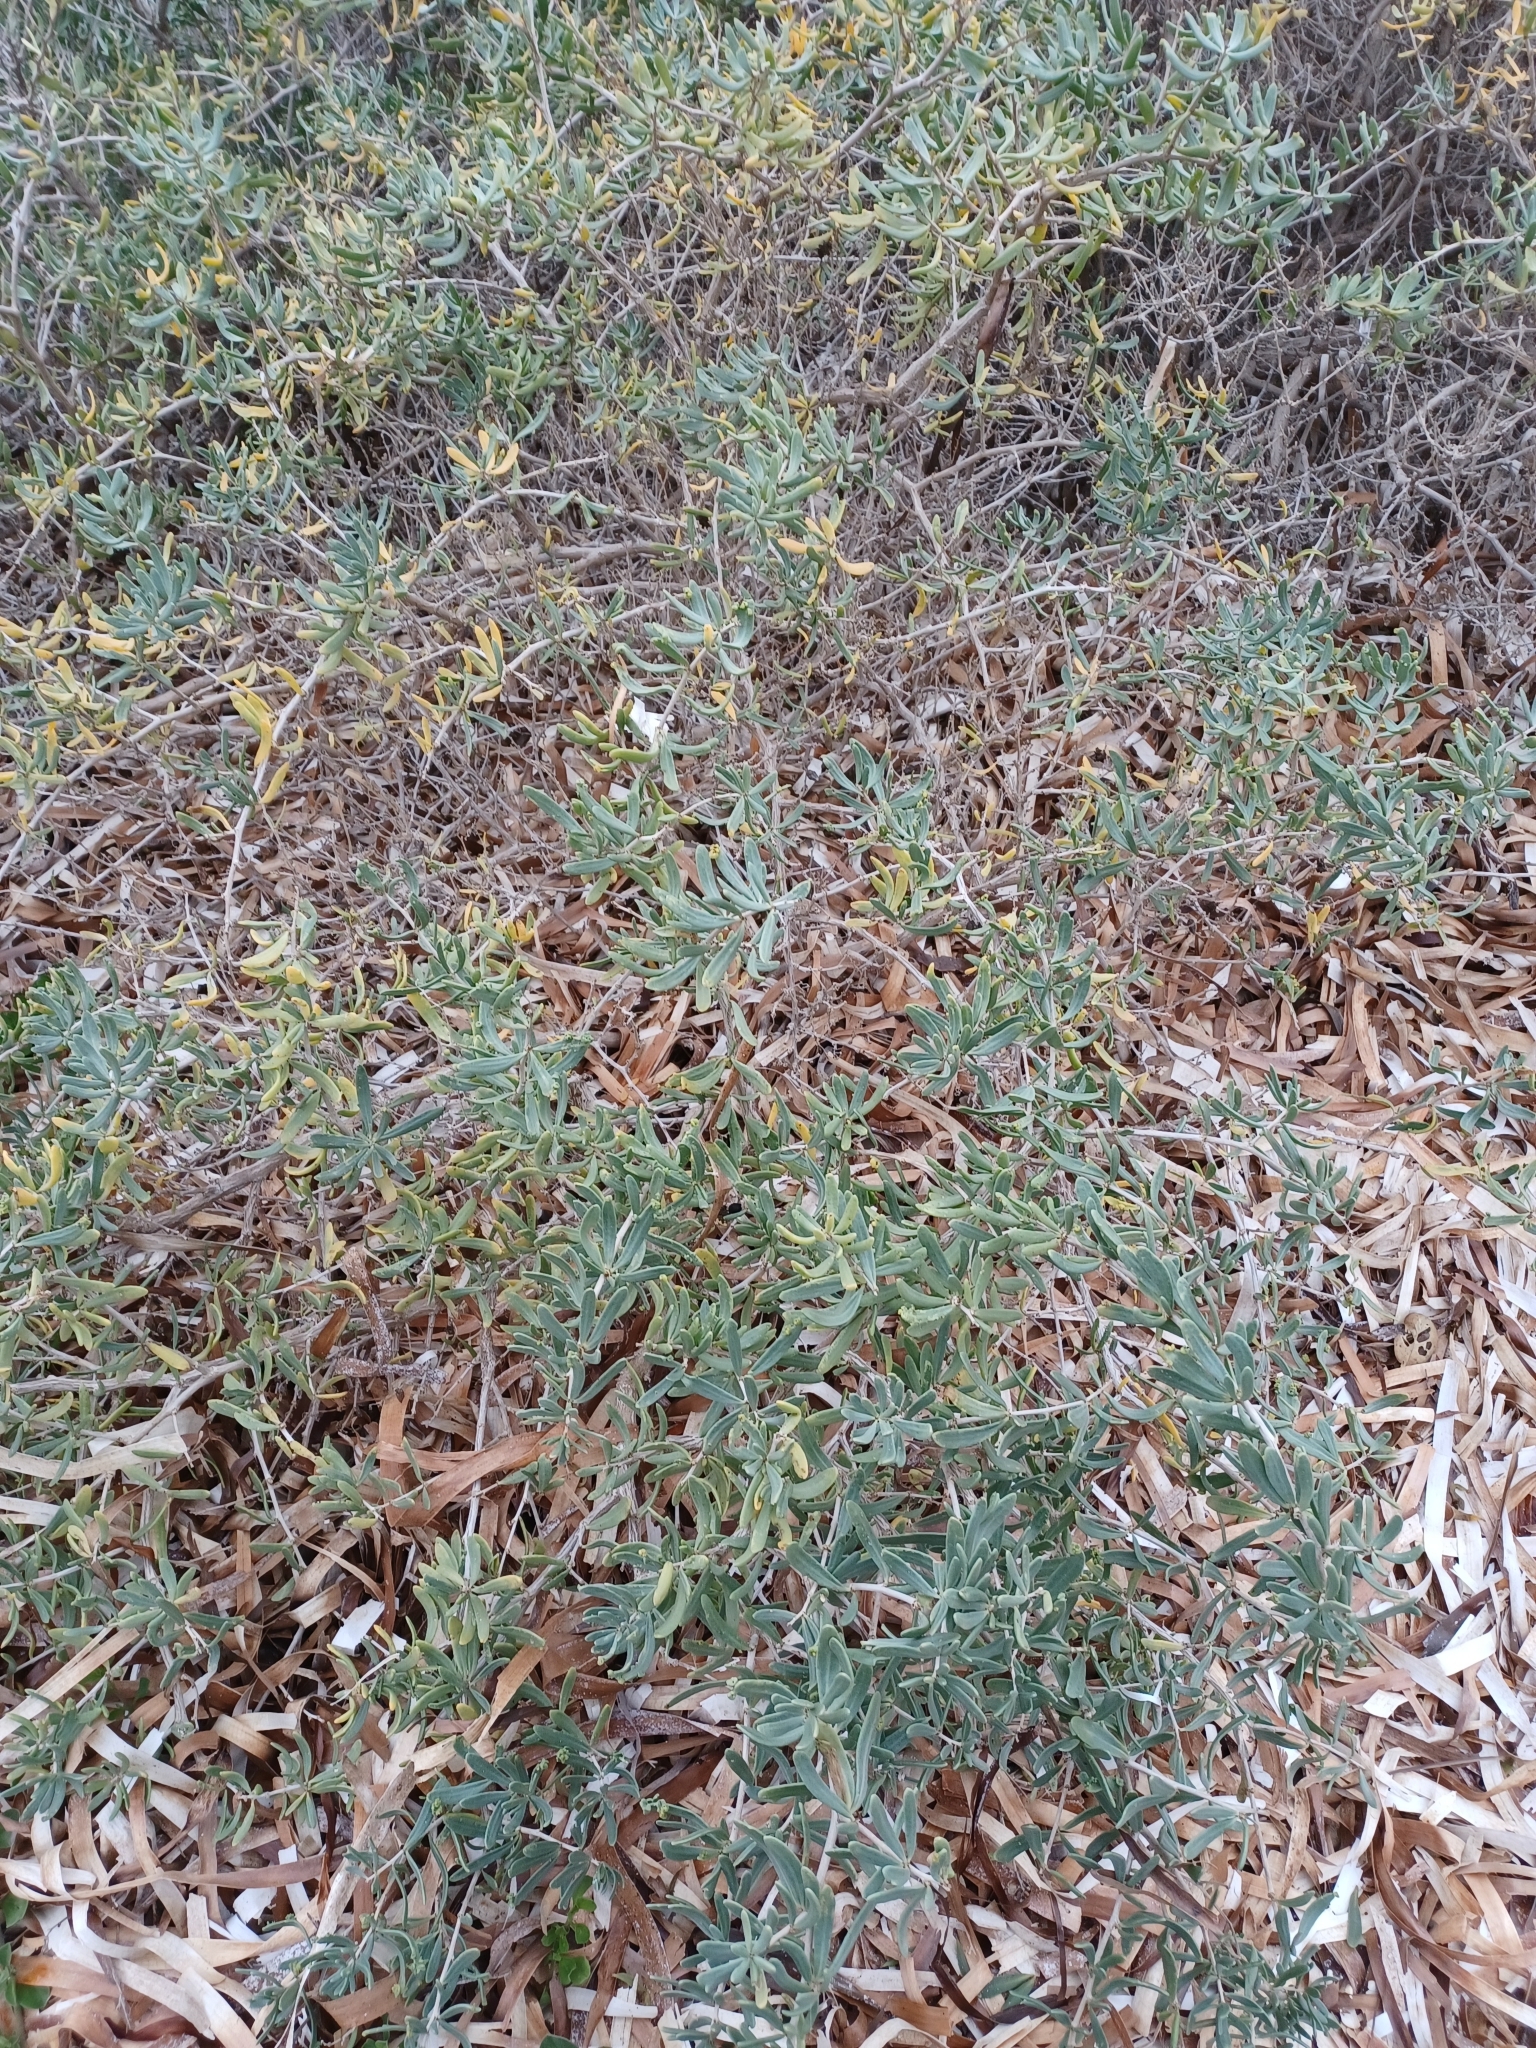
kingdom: Plantae
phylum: Tracheophyta
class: Magnoliopsida
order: Sapindales
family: Nitrariaceae
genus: Nitraria
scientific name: Nitraria billardierei
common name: Dillonbush
